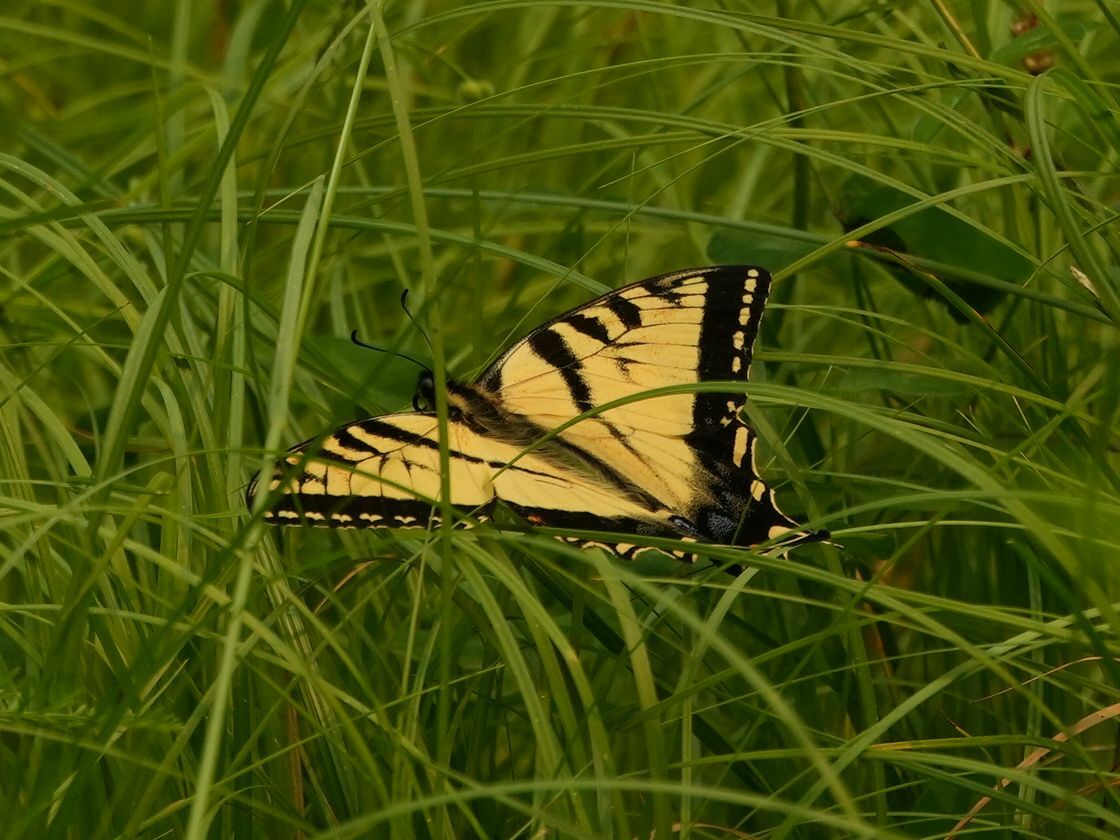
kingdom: Animalia
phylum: Arthropoda
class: Insecta
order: Lepidoptera
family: Papilionidae
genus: Papilio
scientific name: Papilio canadensis
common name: Canadian tiger swallowtail
